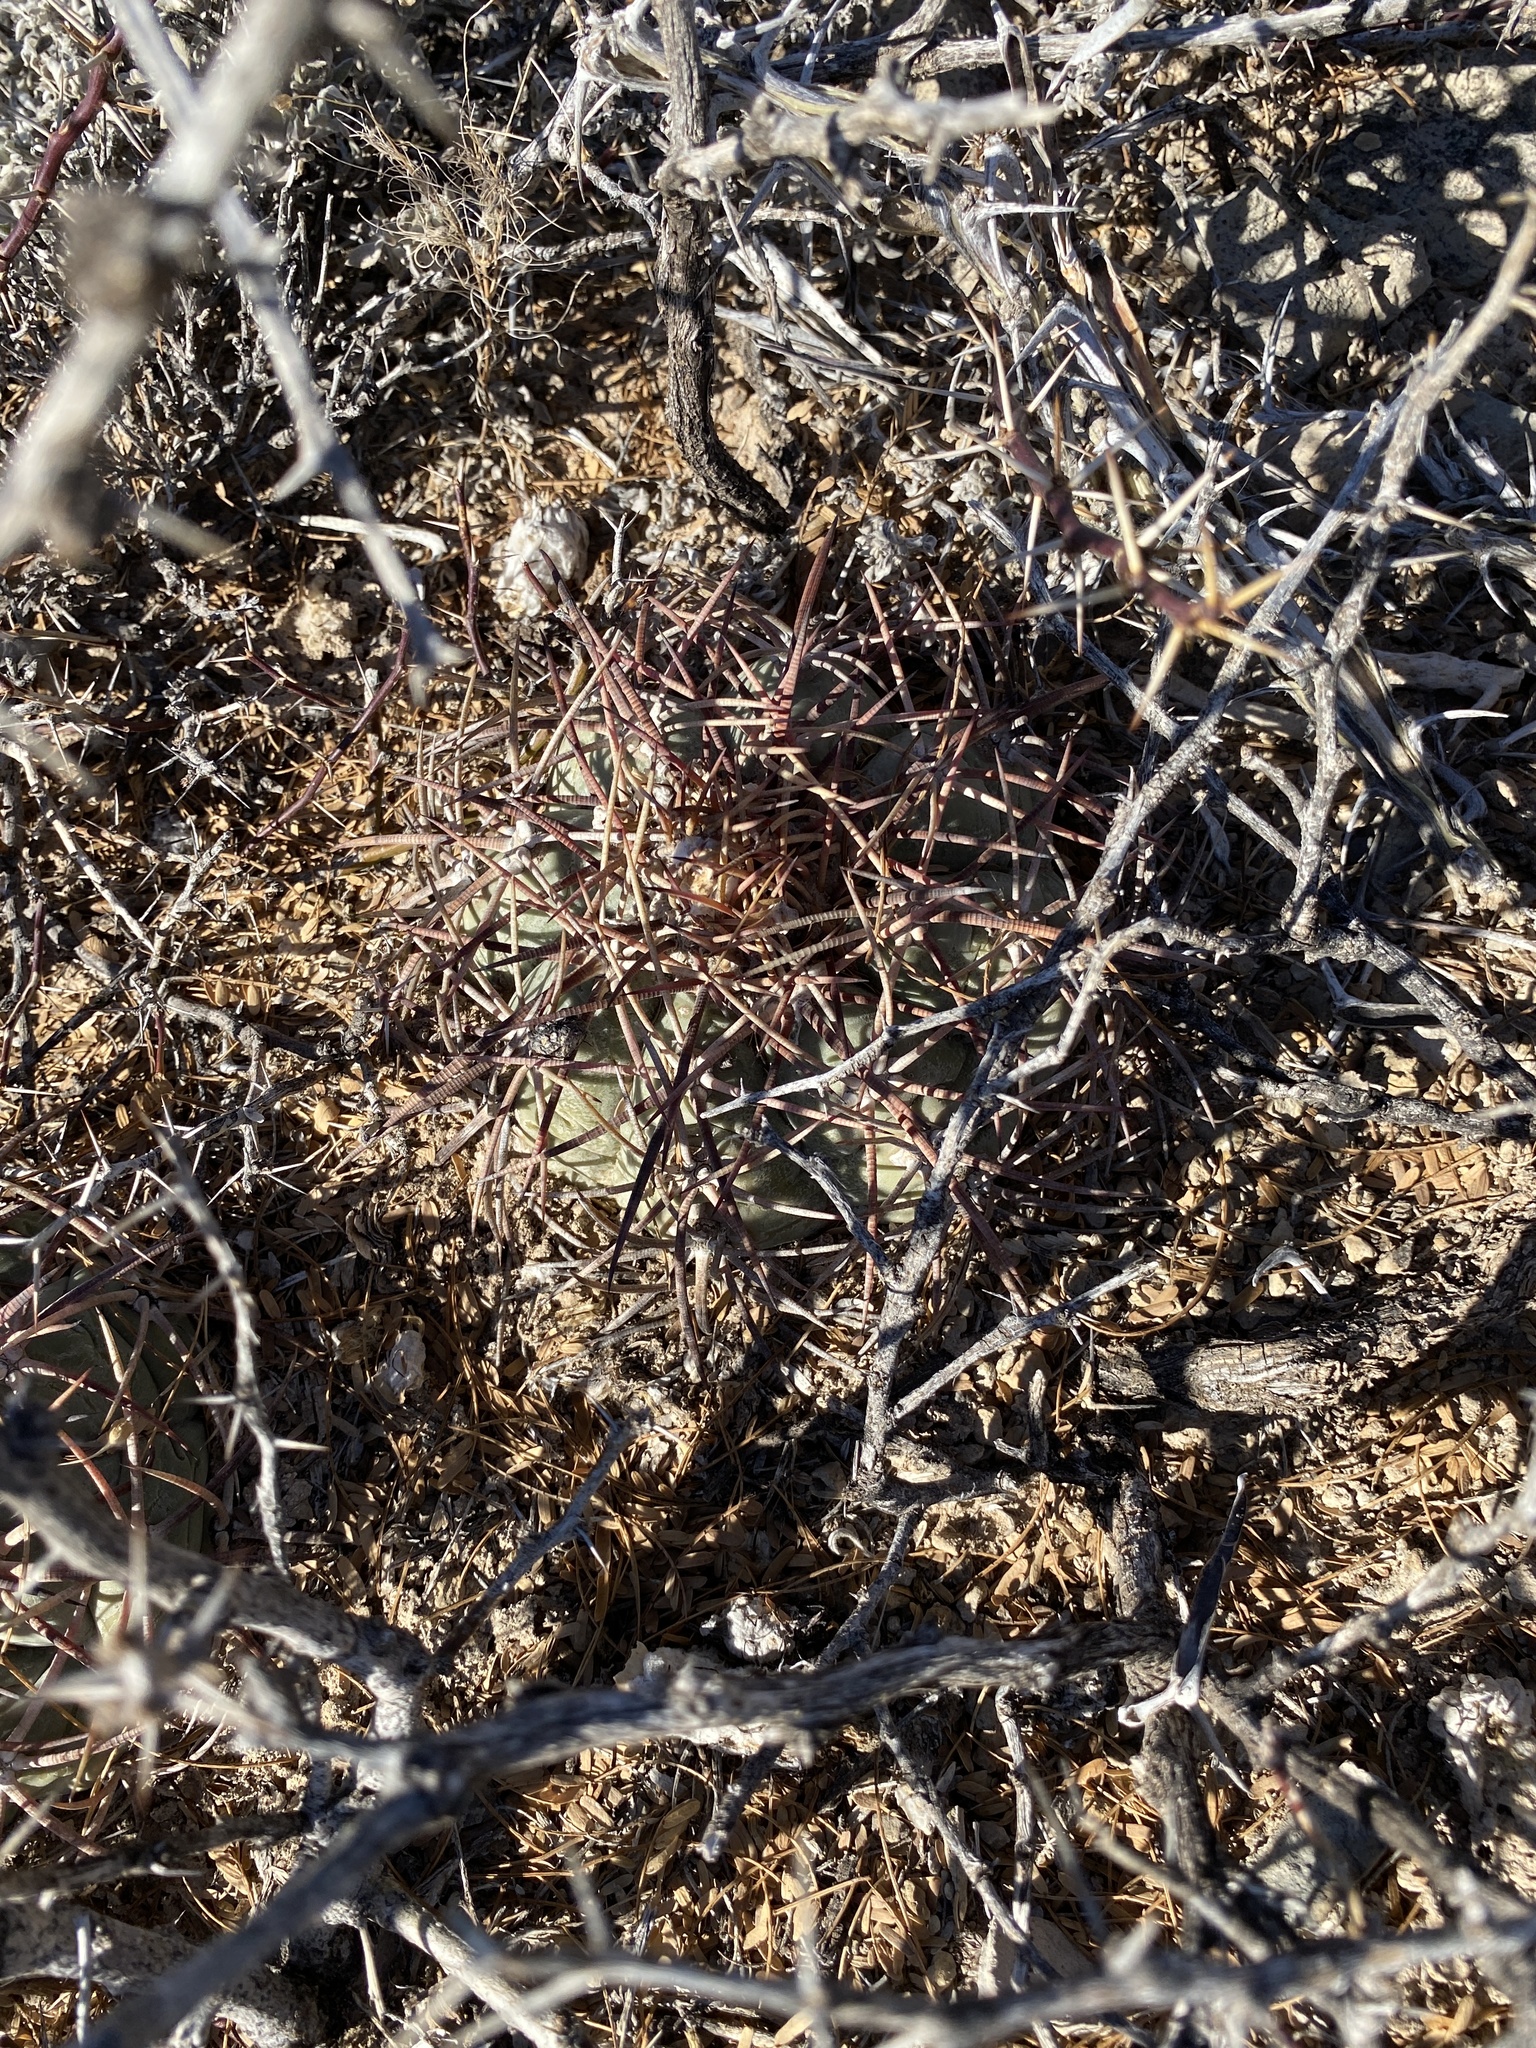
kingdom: Plantae
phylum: Tracheophyta
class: Magnoliopsida
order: Caryophyllales
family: Cactaceae
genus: Echinocactus
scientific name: Echinocactus horizonthalonius
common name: Devilshead
